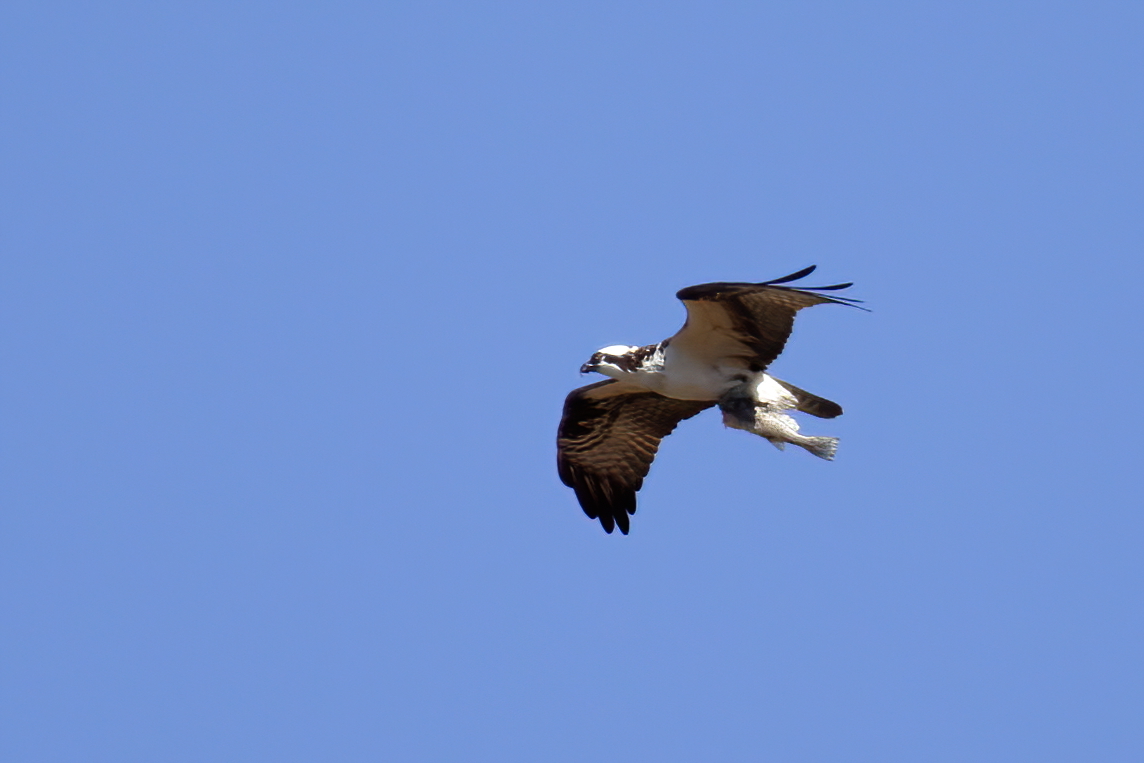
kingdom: Animalia
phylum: Chordata
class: Aves
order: Accipitriformes
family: Pandionidae
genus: Pandion
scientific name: Pandion haliaetus
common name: Osprey
